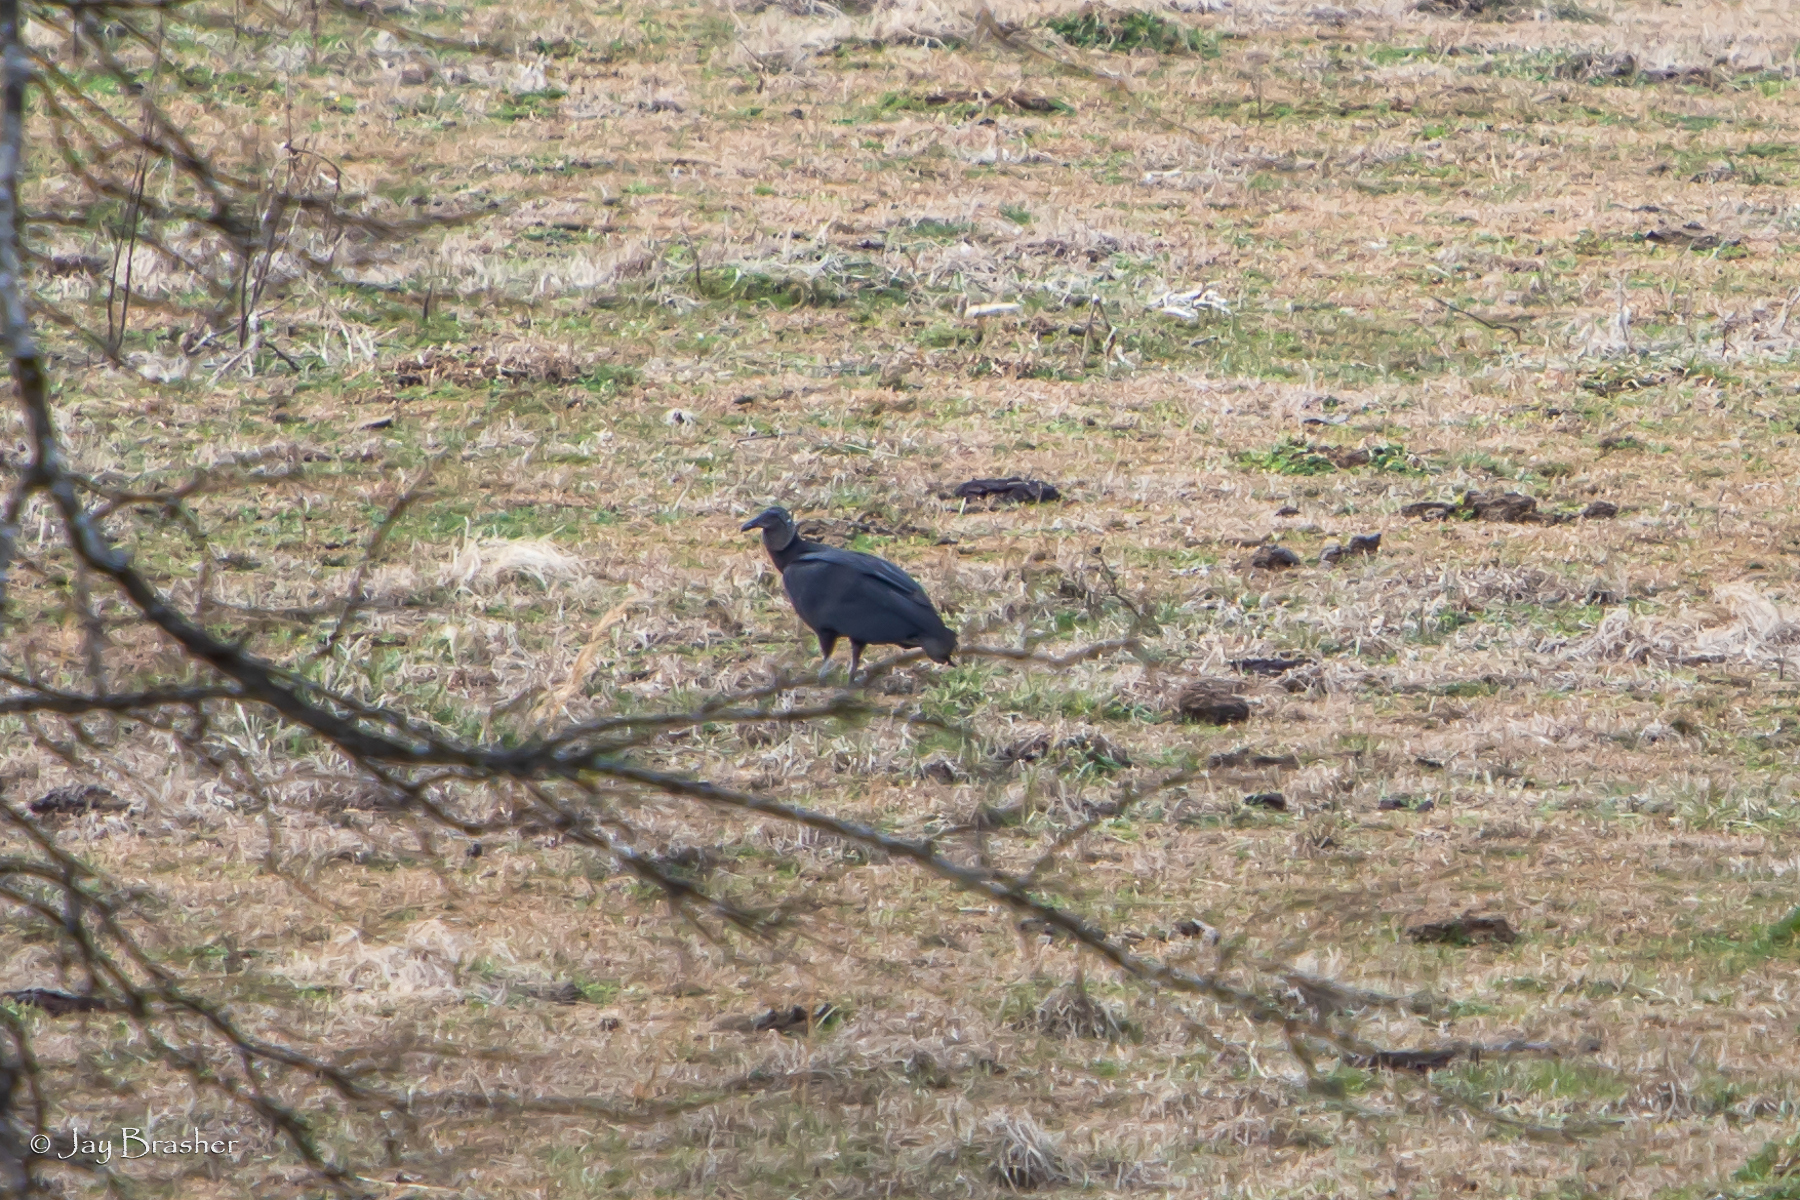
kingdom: Animalia
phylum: Chordata
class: Aves
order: Accipitriformes
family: Cathartidae
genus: Coragyps
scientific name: Coragyps atratus
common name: Black vulture
